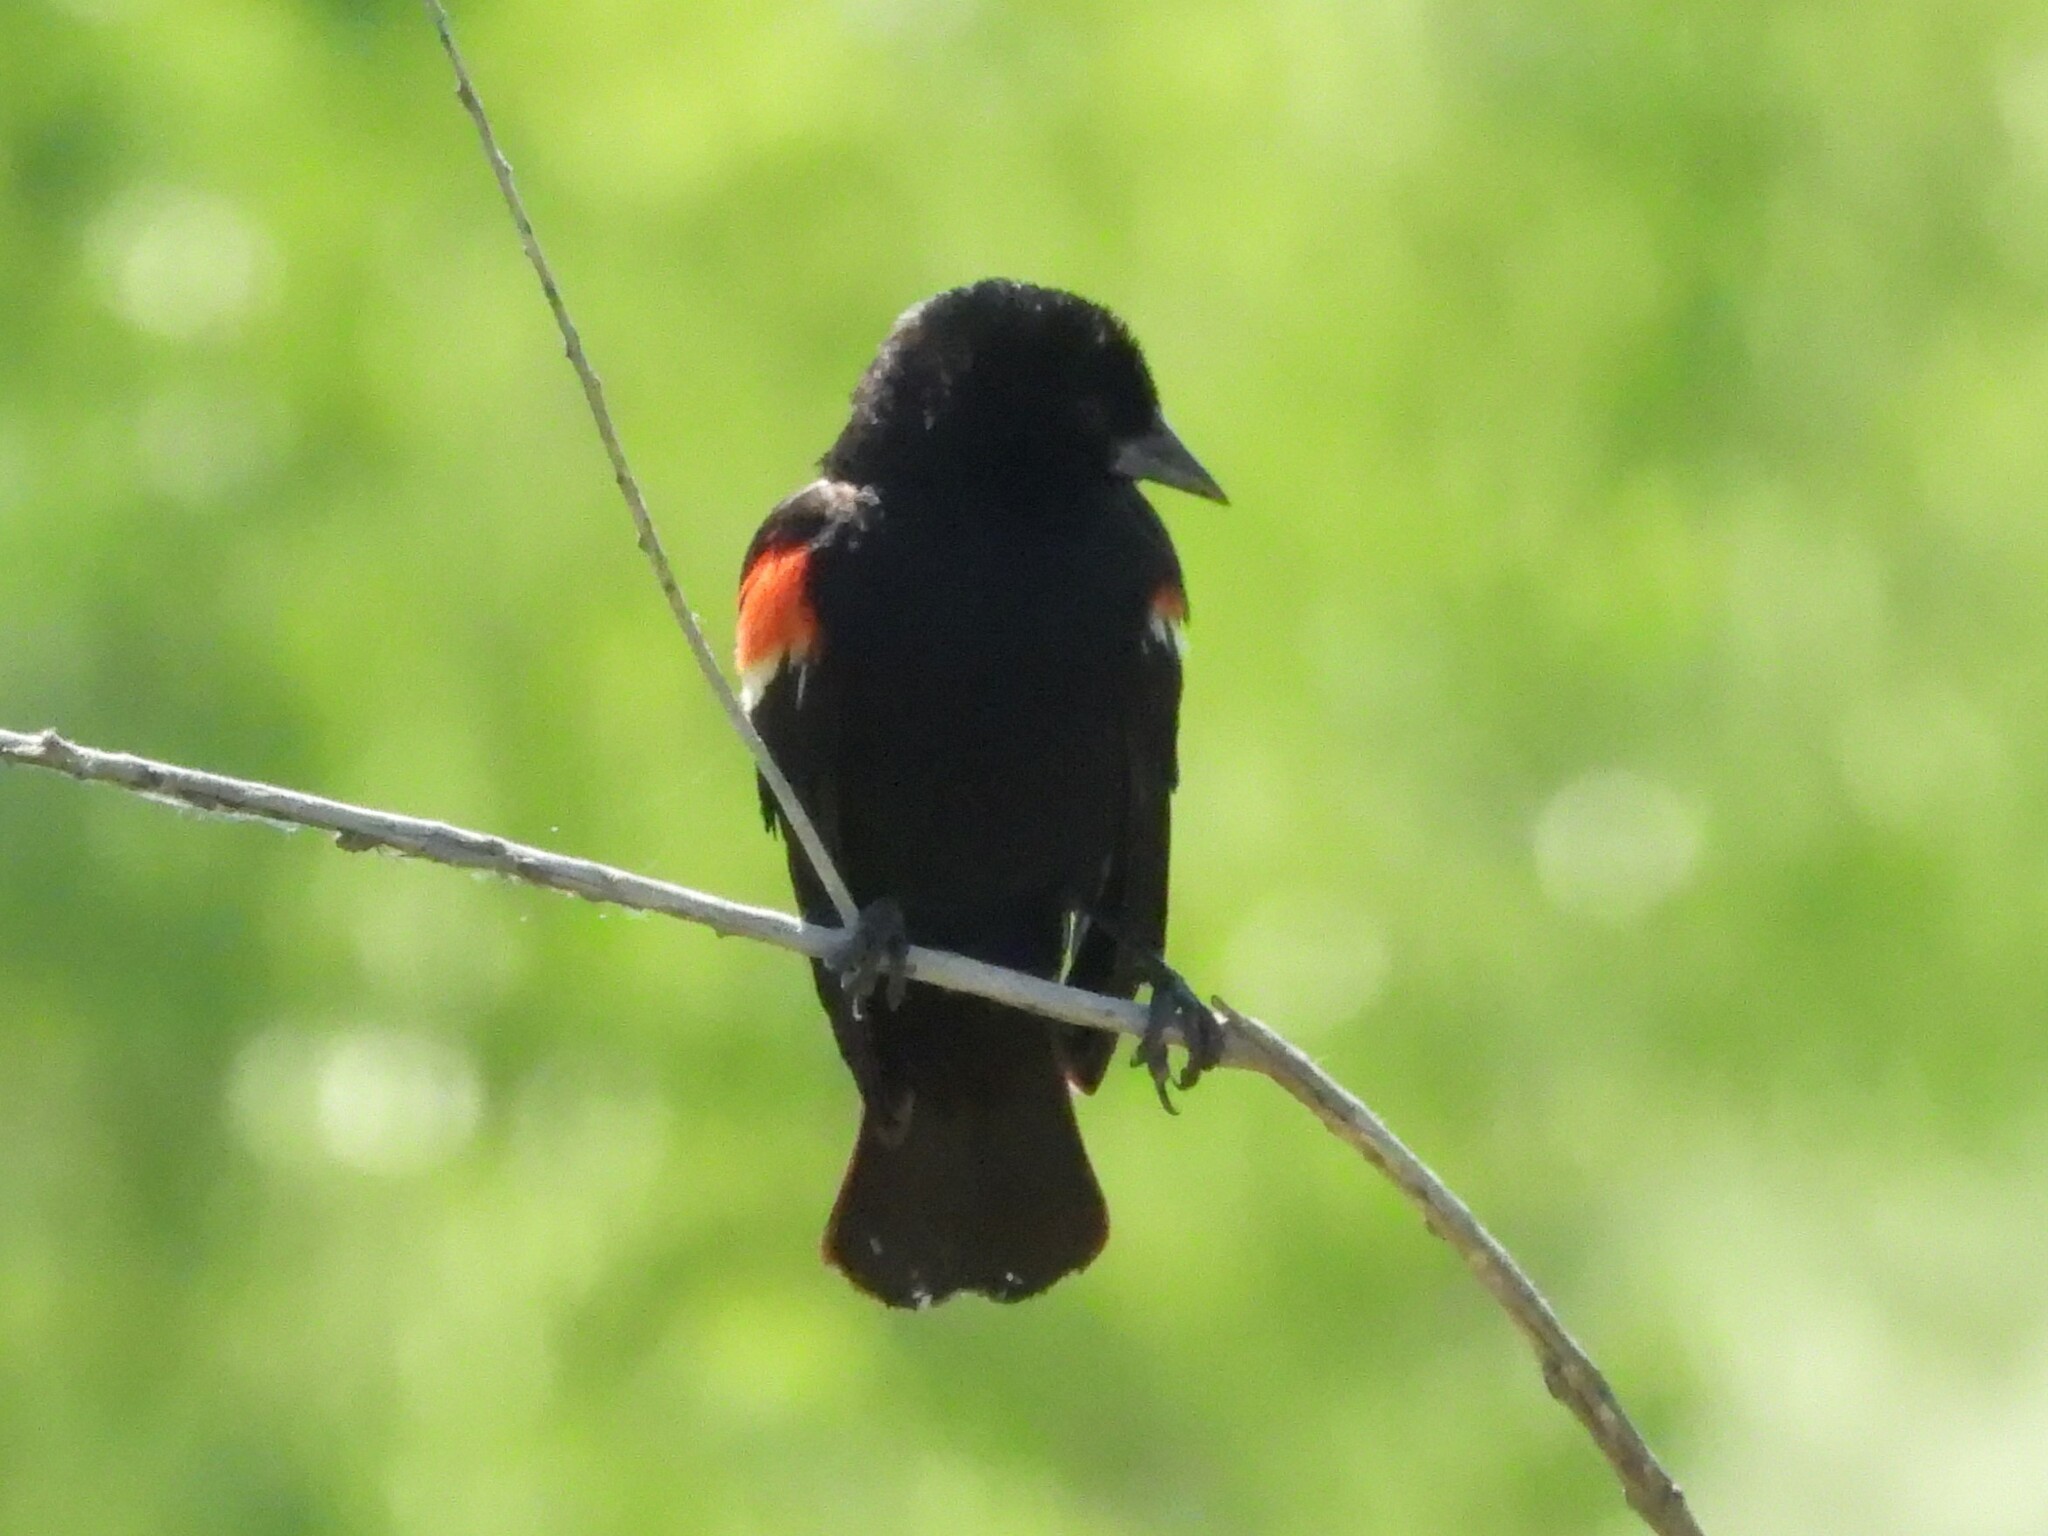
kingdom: Animalia
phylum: Chordata
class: Aves
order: Passeriformes
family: Icteridae
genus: Agelaius
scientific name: Agelaius phoeniceus
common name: Red-winged blackbird
